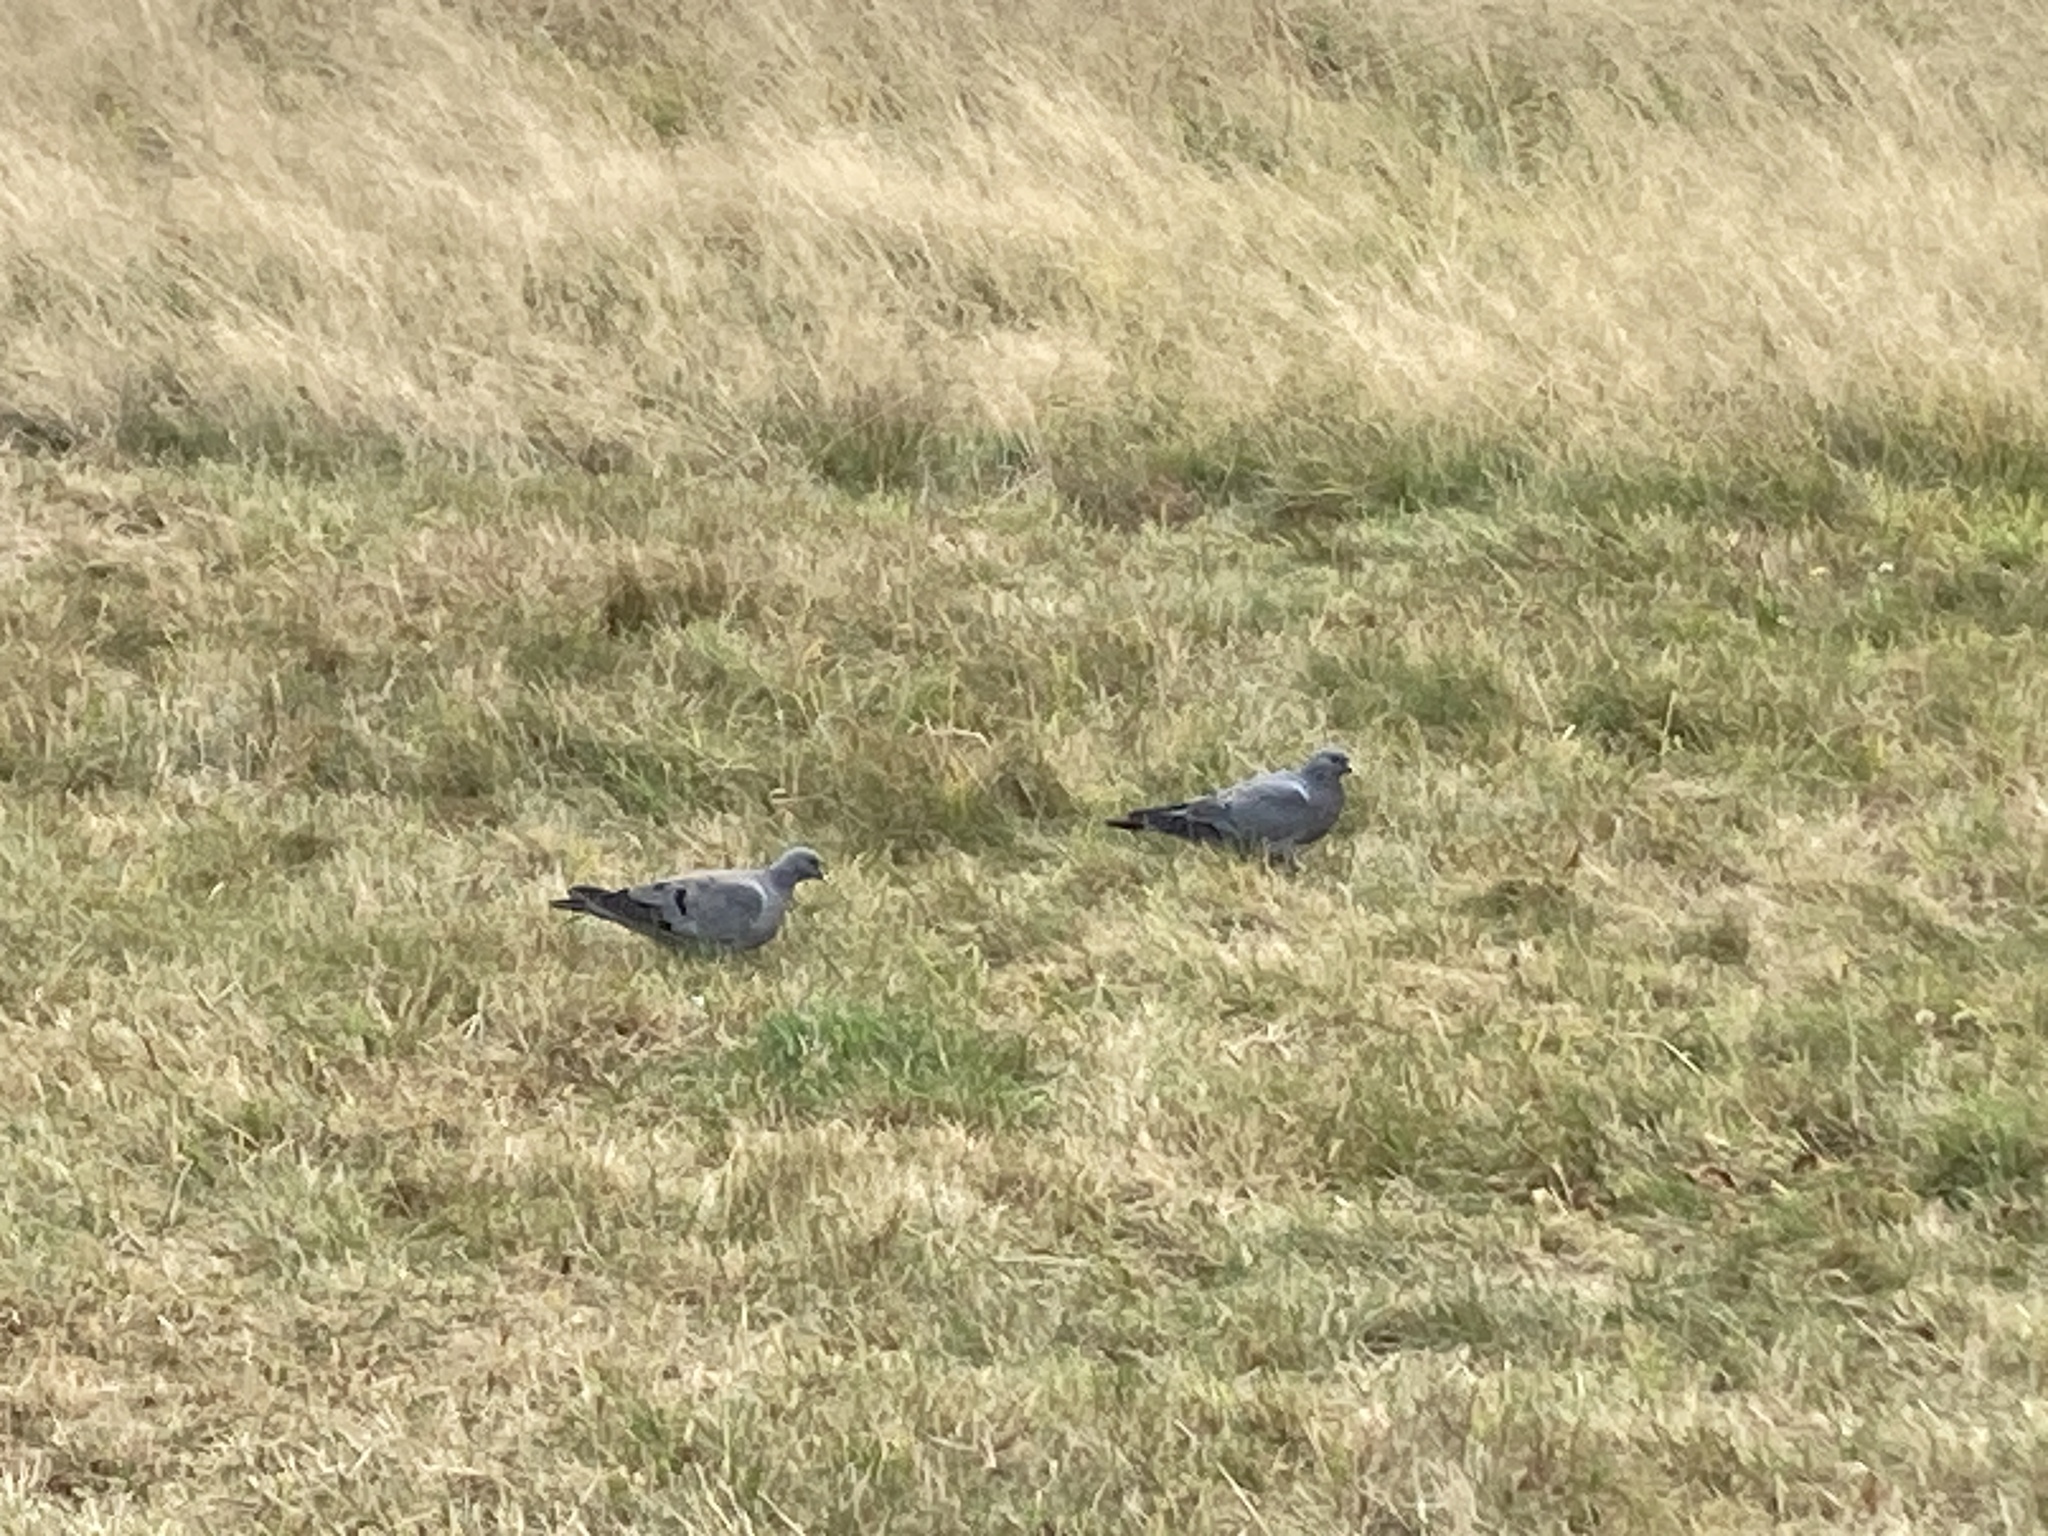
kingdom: Animalia
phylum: Chordata
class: Aves
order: Columbiformes
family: Columbidae
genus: Columba
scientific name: Columba oenas
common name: Stock dove
